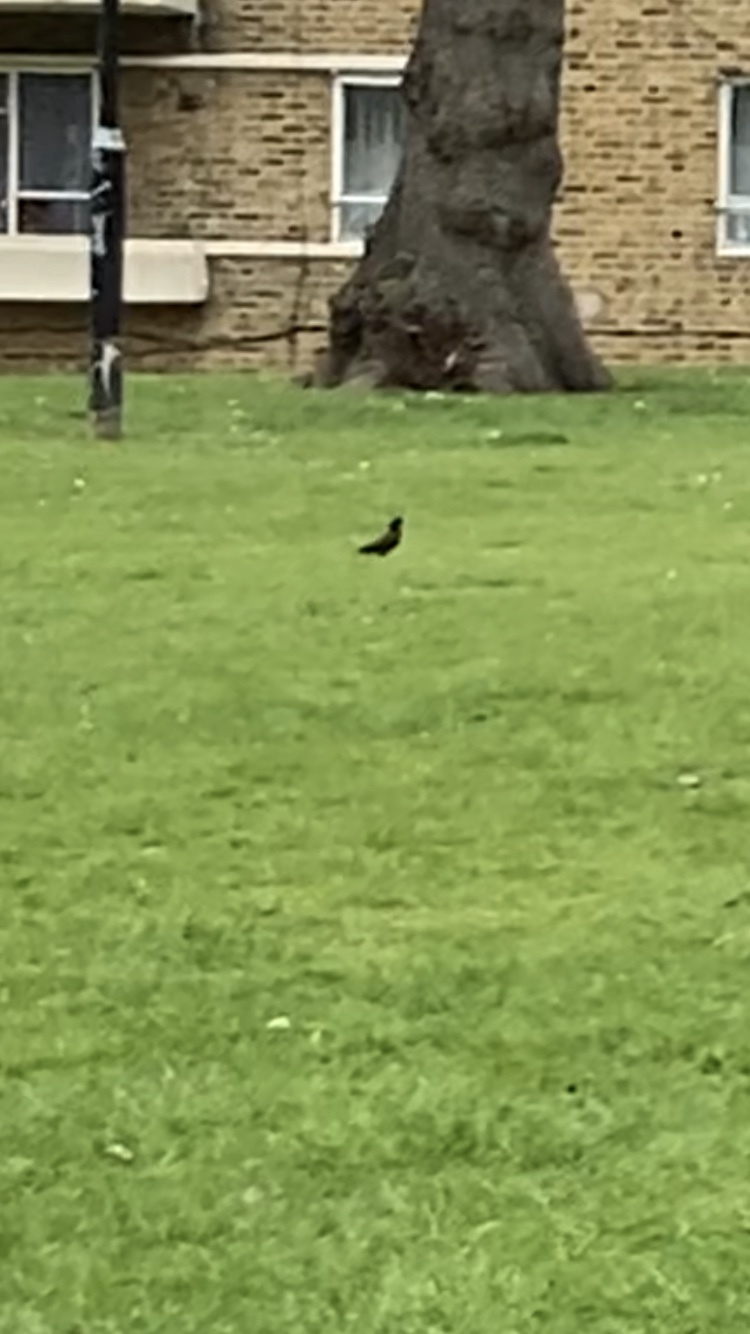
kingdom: Animalia
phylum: Chordata
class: Aves
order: Passeriformes
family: Sturnidae
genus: Sturnus
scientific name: Sturnus vulgaris
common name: Common starling
